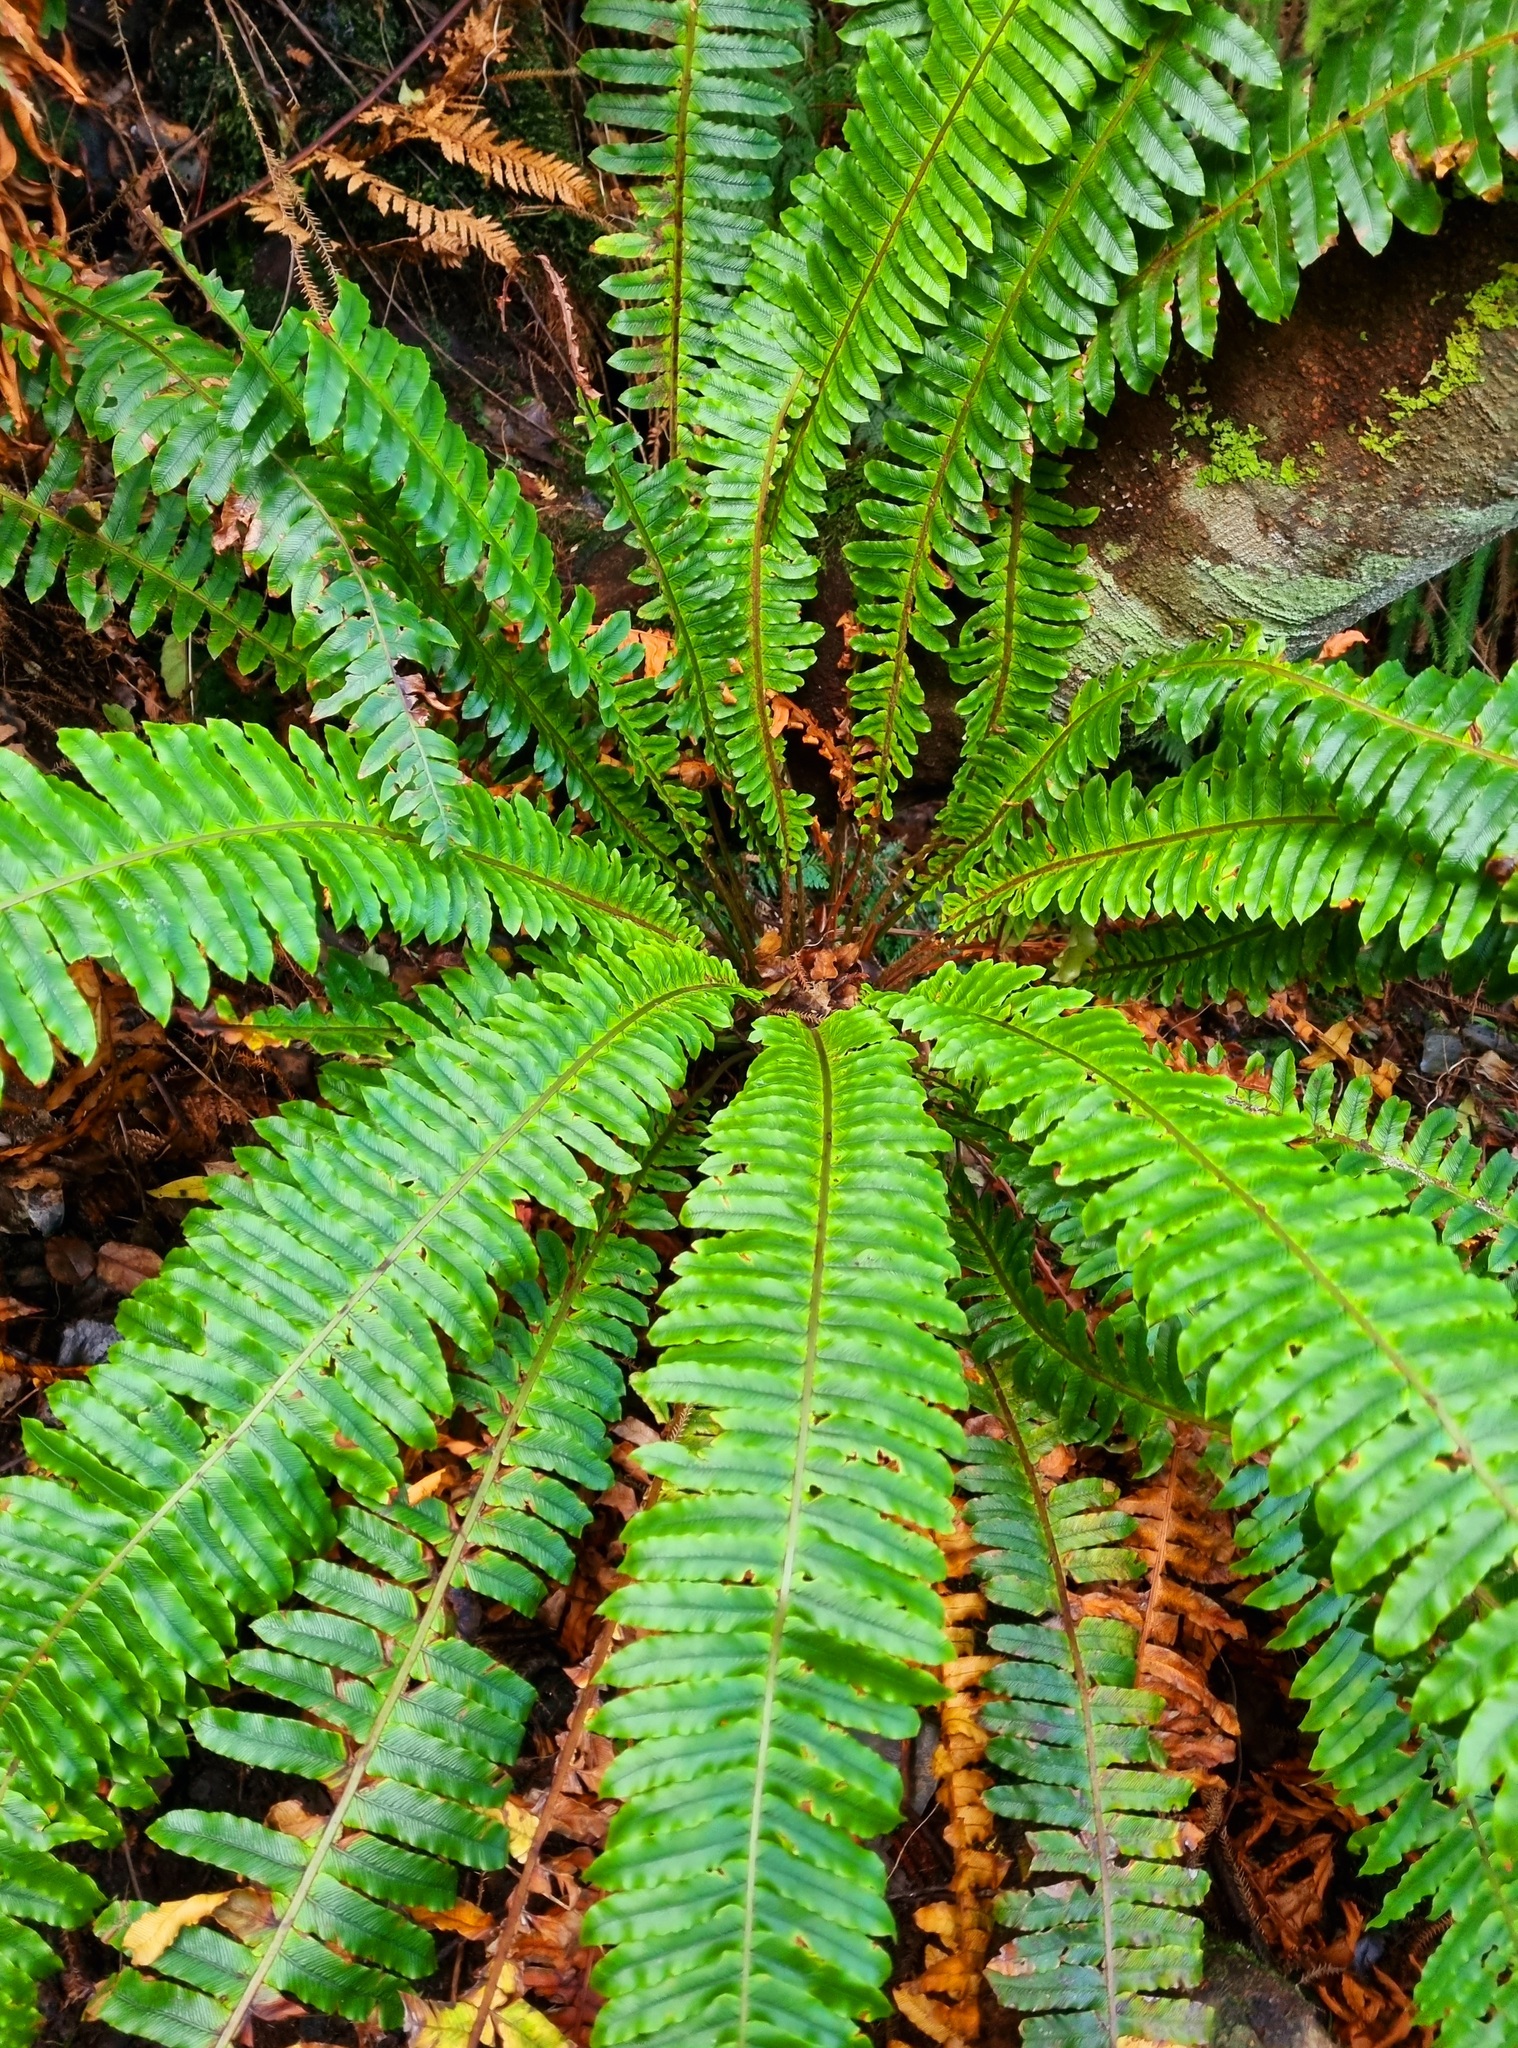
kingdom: Plantae
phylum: Tracheophyta
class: Polypodiopsida
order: Polypodiales
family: Blechnaceae
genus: Lomaria
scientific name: Lomaria discolor
